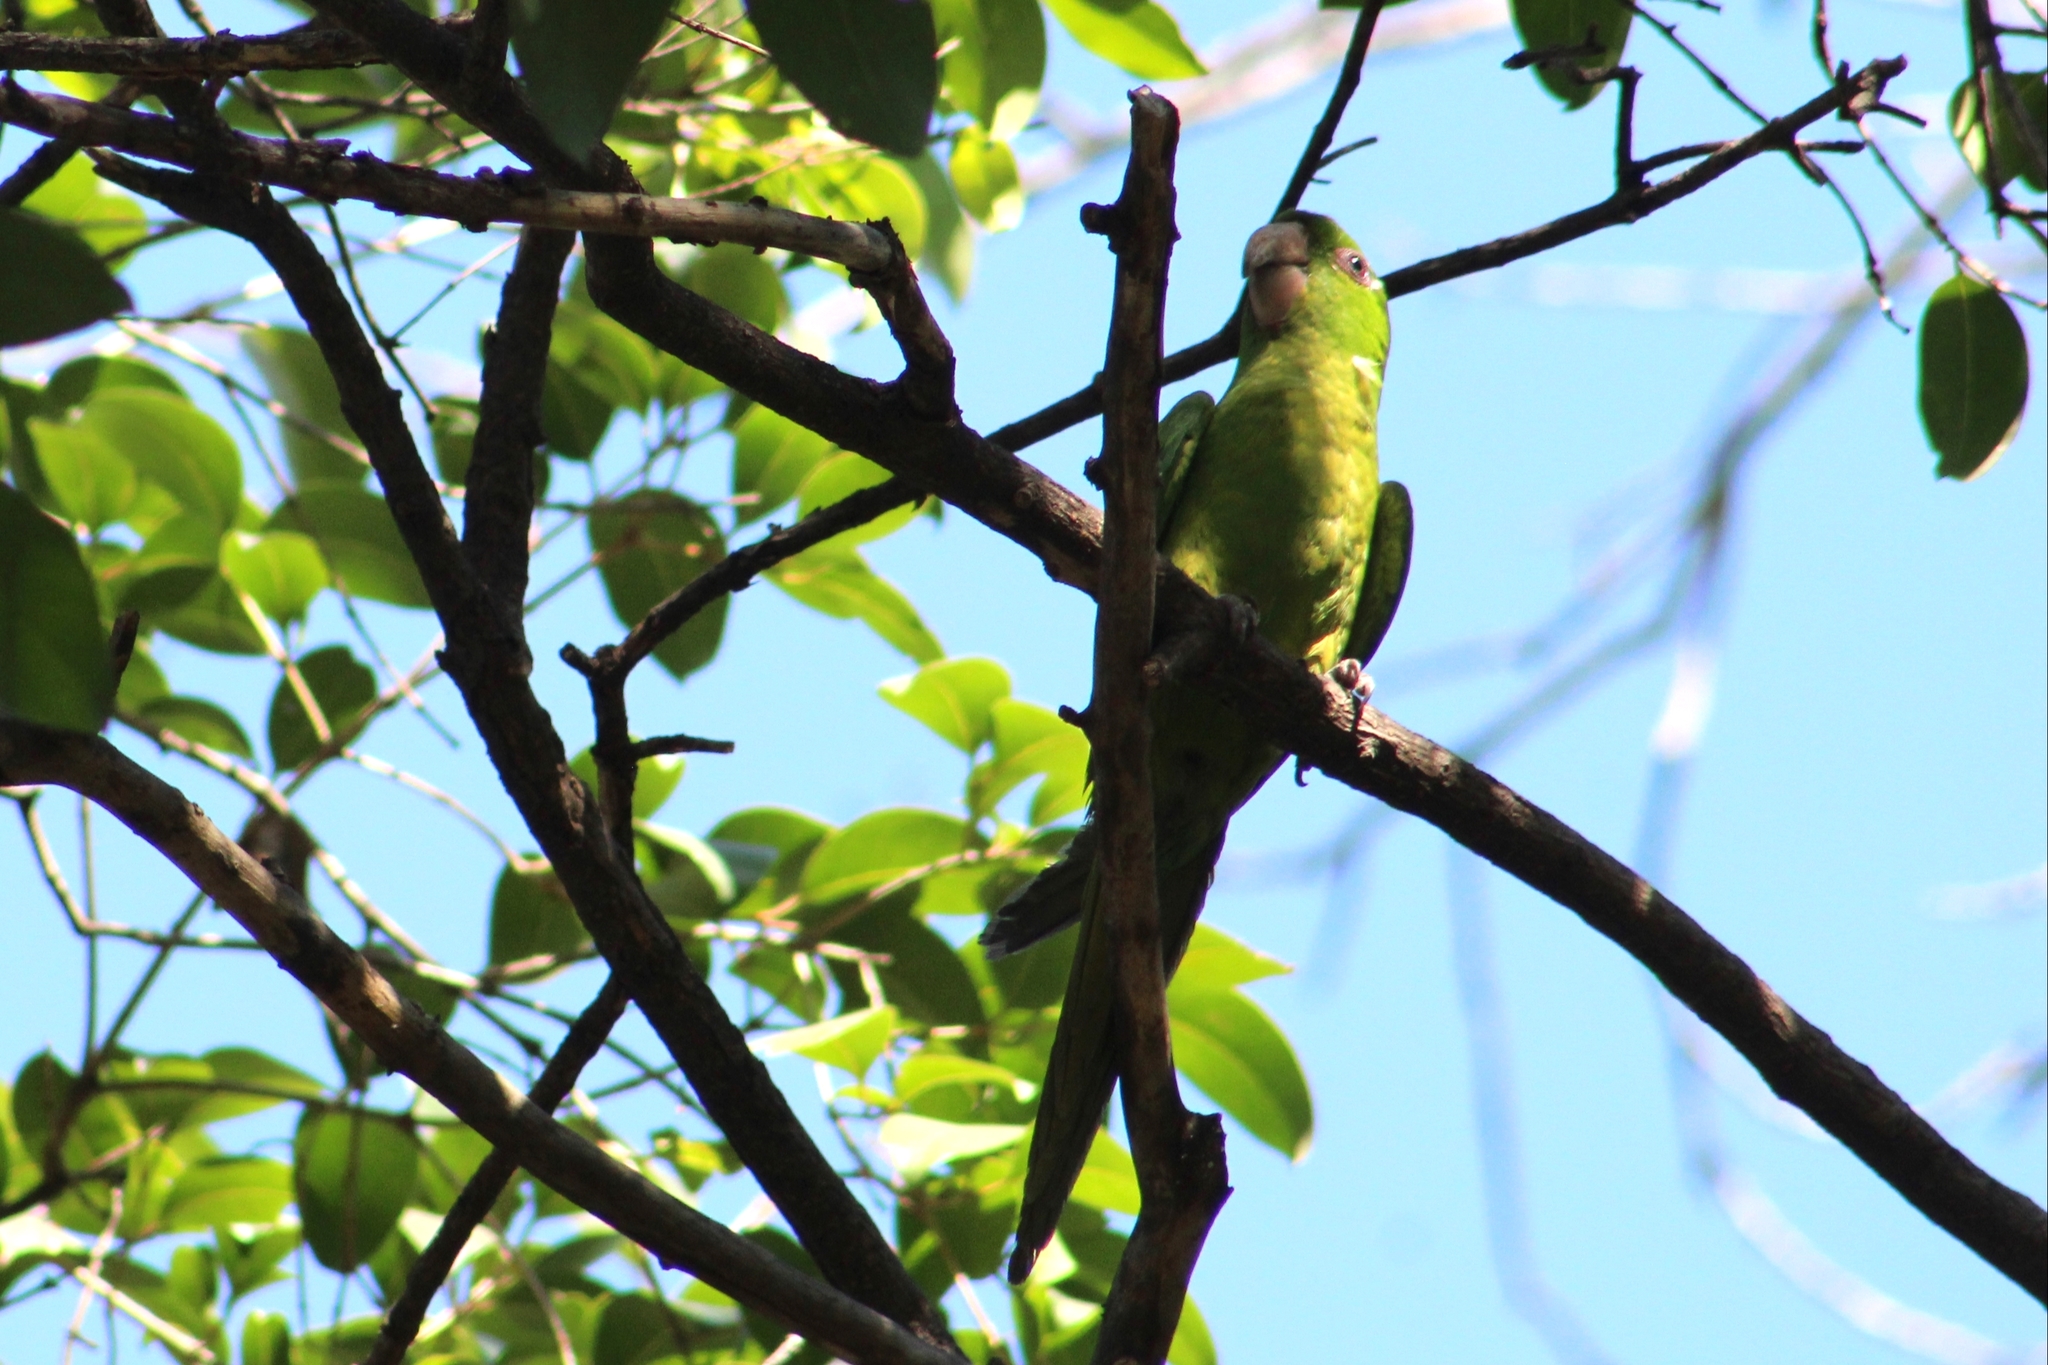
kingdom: Animalia
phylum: Chordata
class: Aves
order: Psittaciformes
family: Psittacidae
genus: Aratinga
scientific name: Aratinga holochlora
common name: Green parakeet
